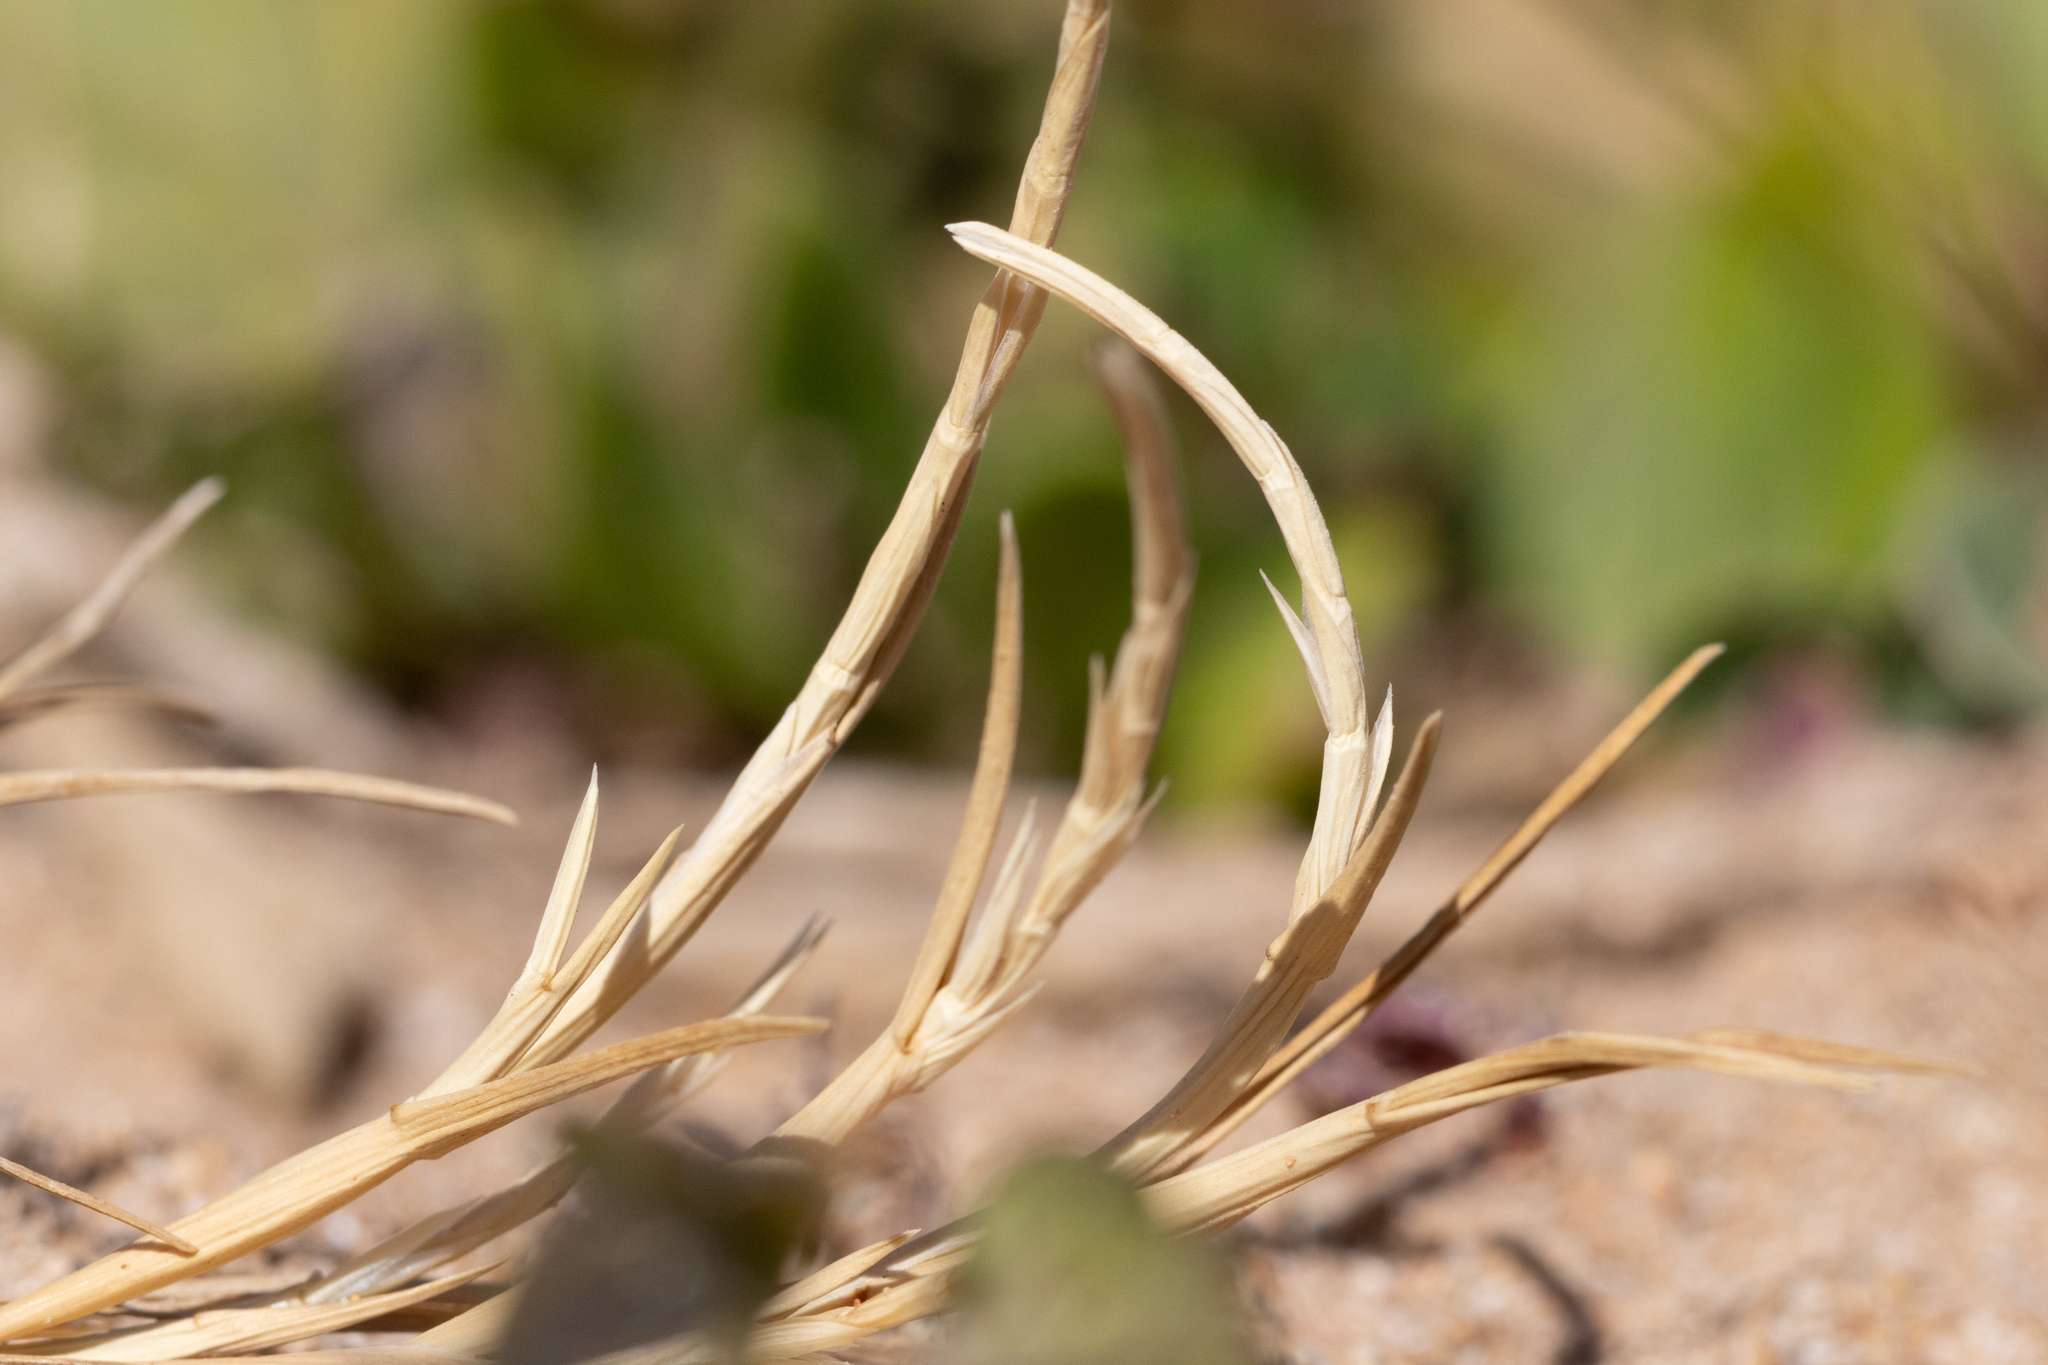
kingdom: Plantae
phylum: Tracheophyta
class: Liliopsida
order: Poales
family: Poaceae
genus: Parapholis
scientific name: Parapholis incurva
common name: Curved sicklegrass
